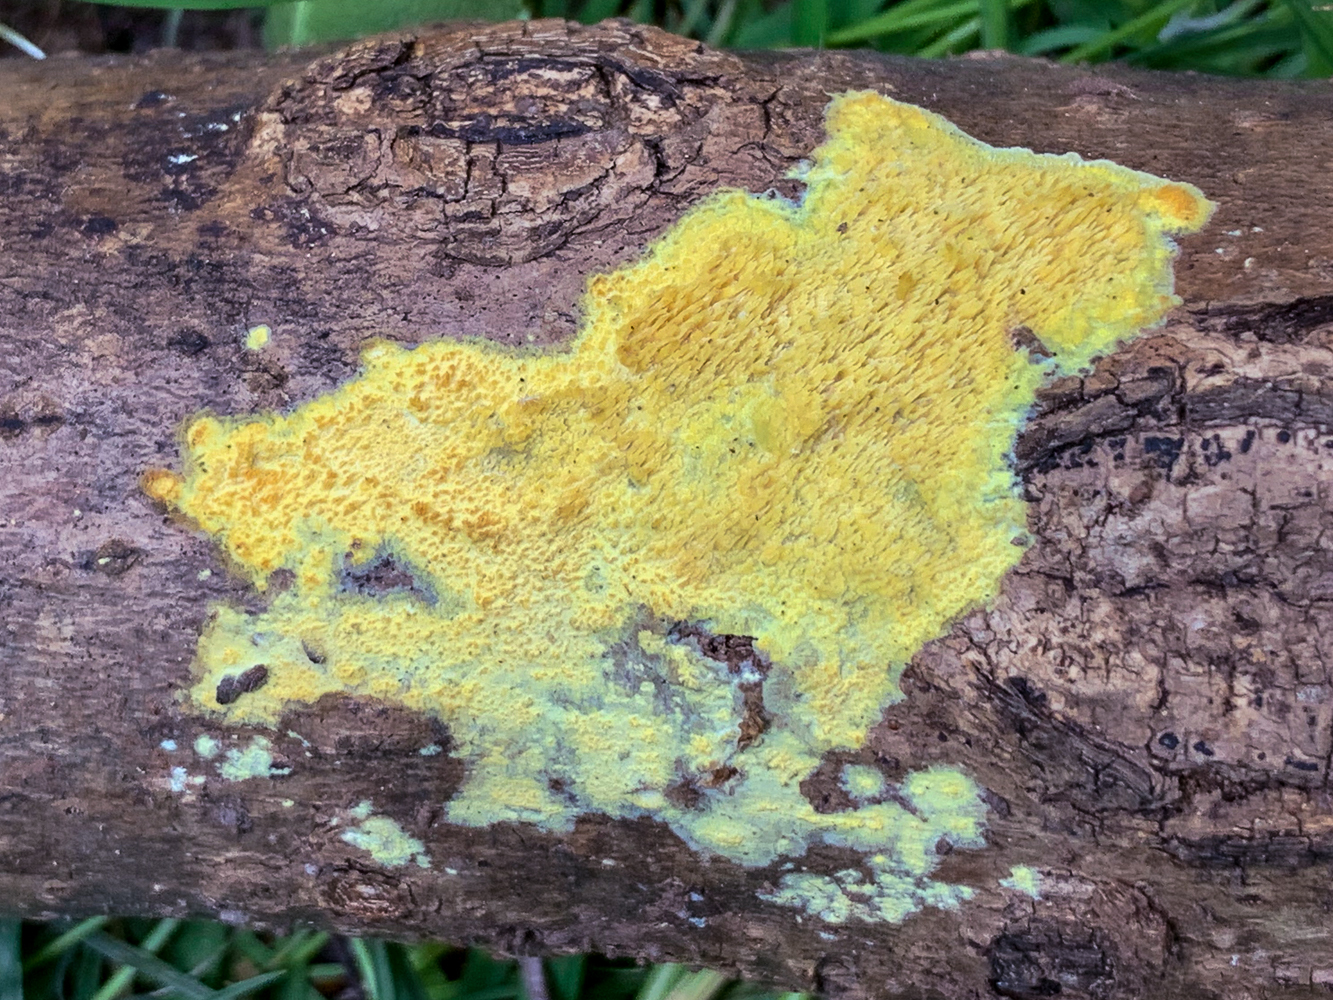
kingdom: Fungi
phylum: Basidiomycota
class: Agaricomycetes
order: Polyporales
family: Meruliaceae
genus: Mycoacia
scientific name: Mycoacia uda
